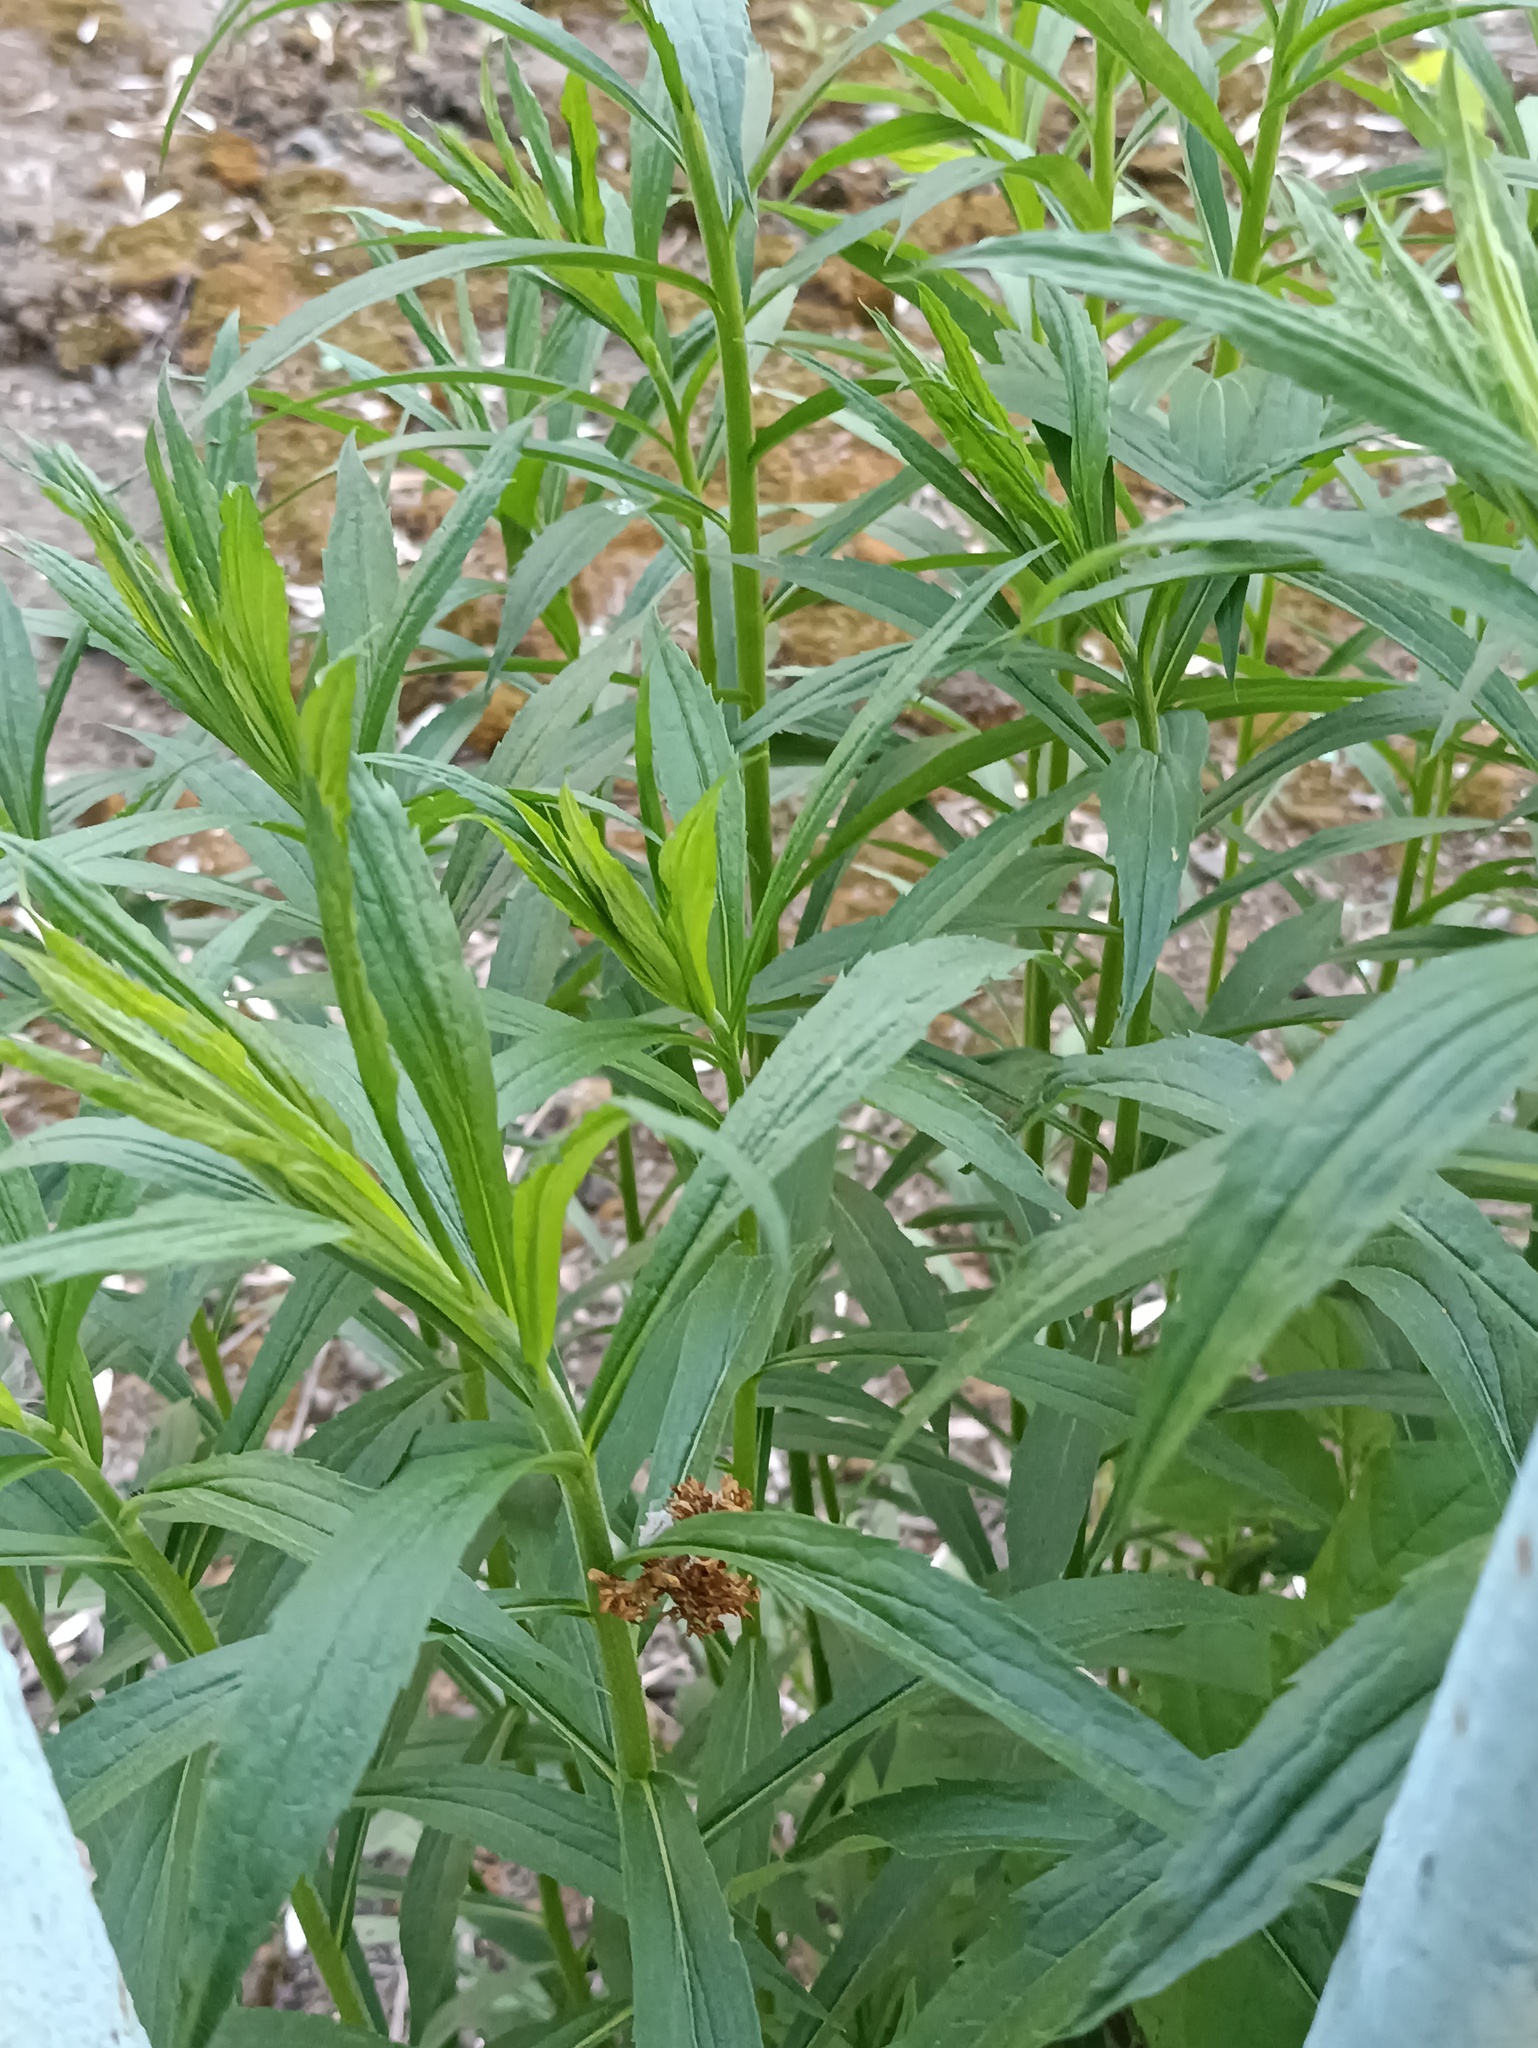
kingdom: Plantae
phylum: Tracheophyta
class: Magnoliopsida
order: Asterales
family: Asteraceae
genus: Solidago
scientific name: Solidago canadensis
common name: Canada goldenrod
